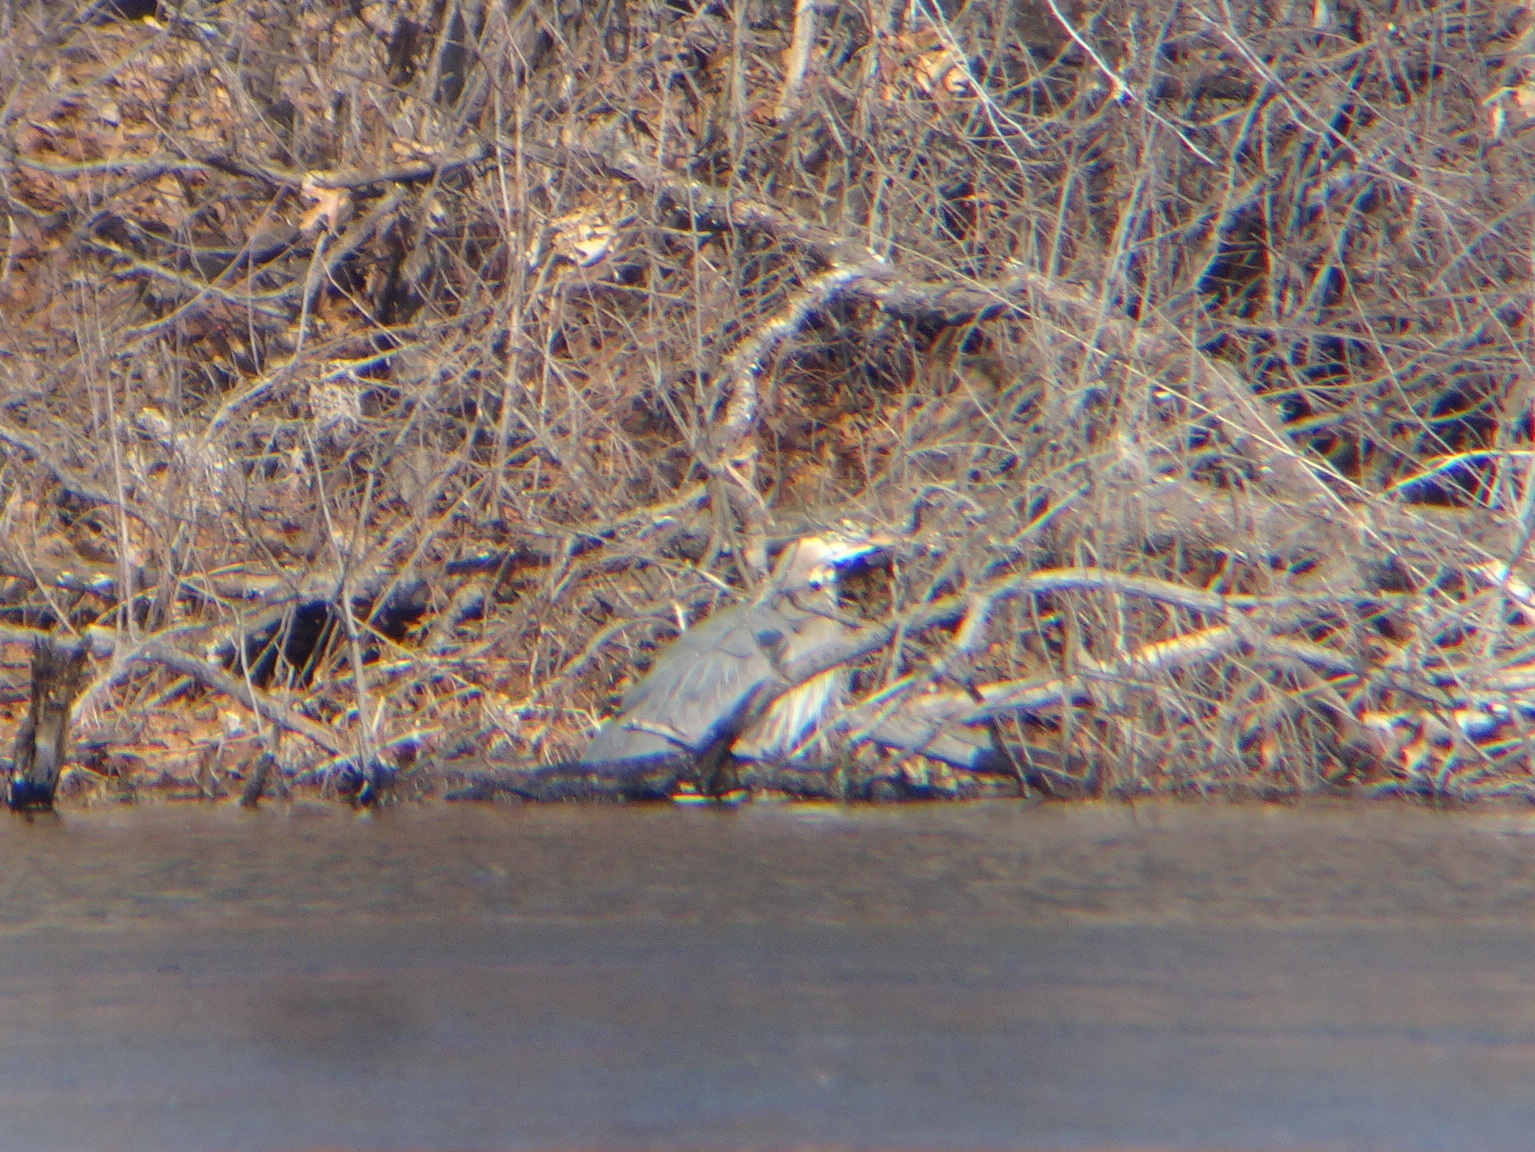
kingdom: Animalia
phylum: Chordata
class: Aves
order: Pelecaniformes
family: Ardeidae
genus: Ardea
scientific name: Ardea herodias
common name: Great blue heron
